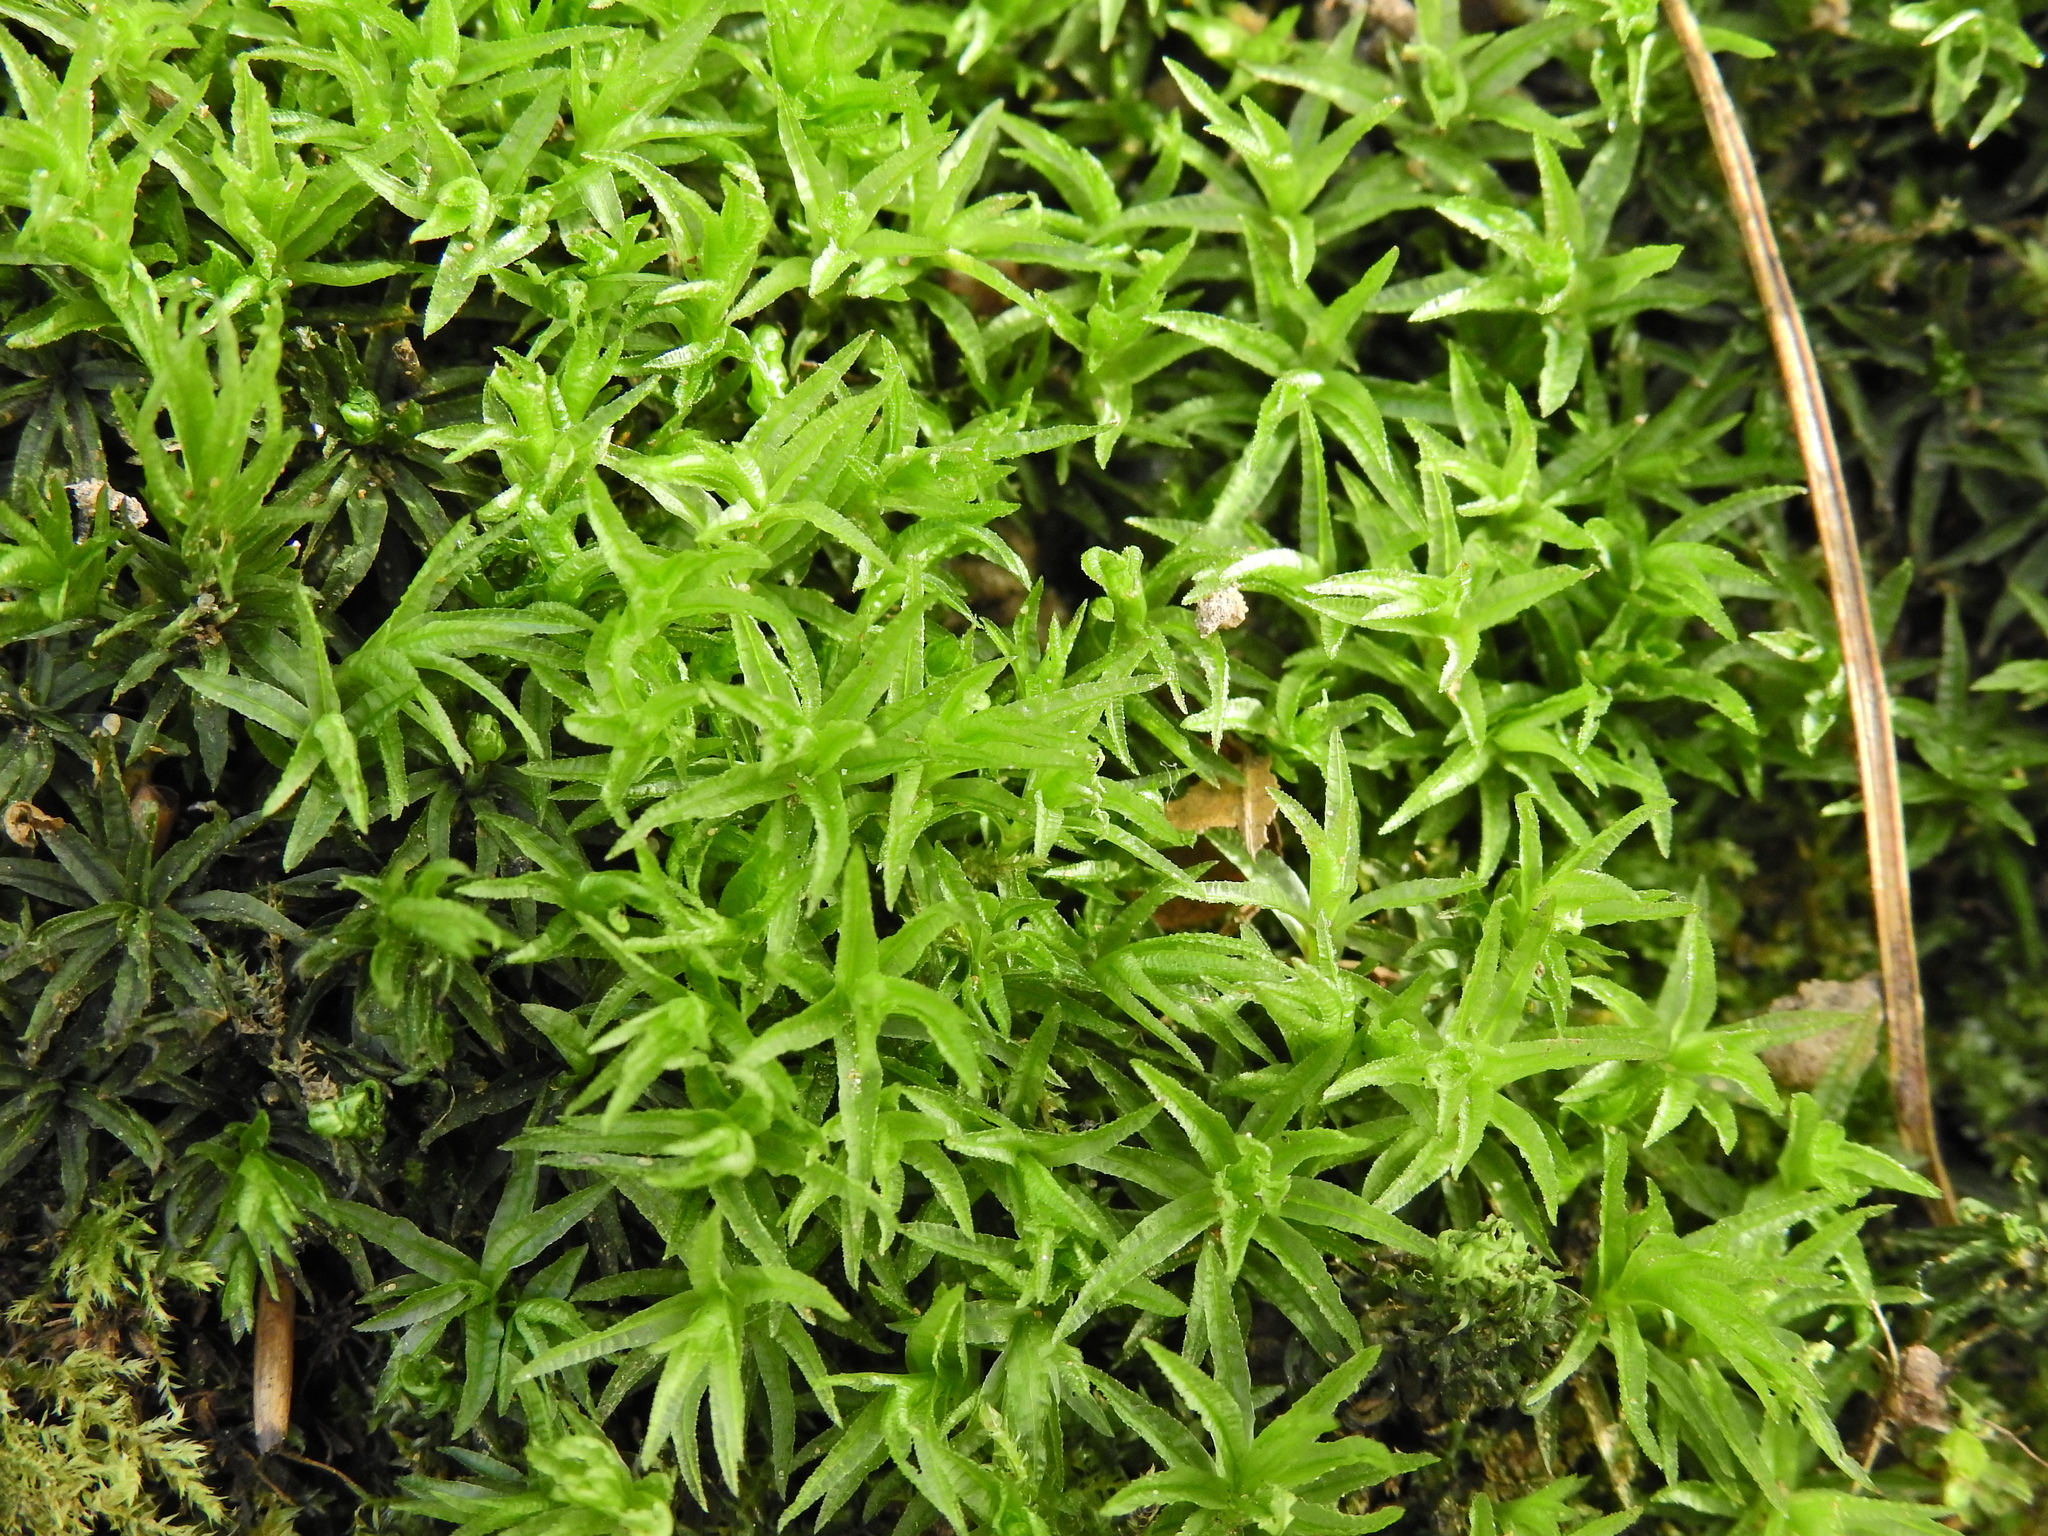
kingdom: Plantae
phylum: Bryophyta
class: Polytrichopsida
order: Polytrichales
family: Polytrichaceae
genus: Atrichum
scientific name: Atrichum undulatum
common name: Common smoothcap
